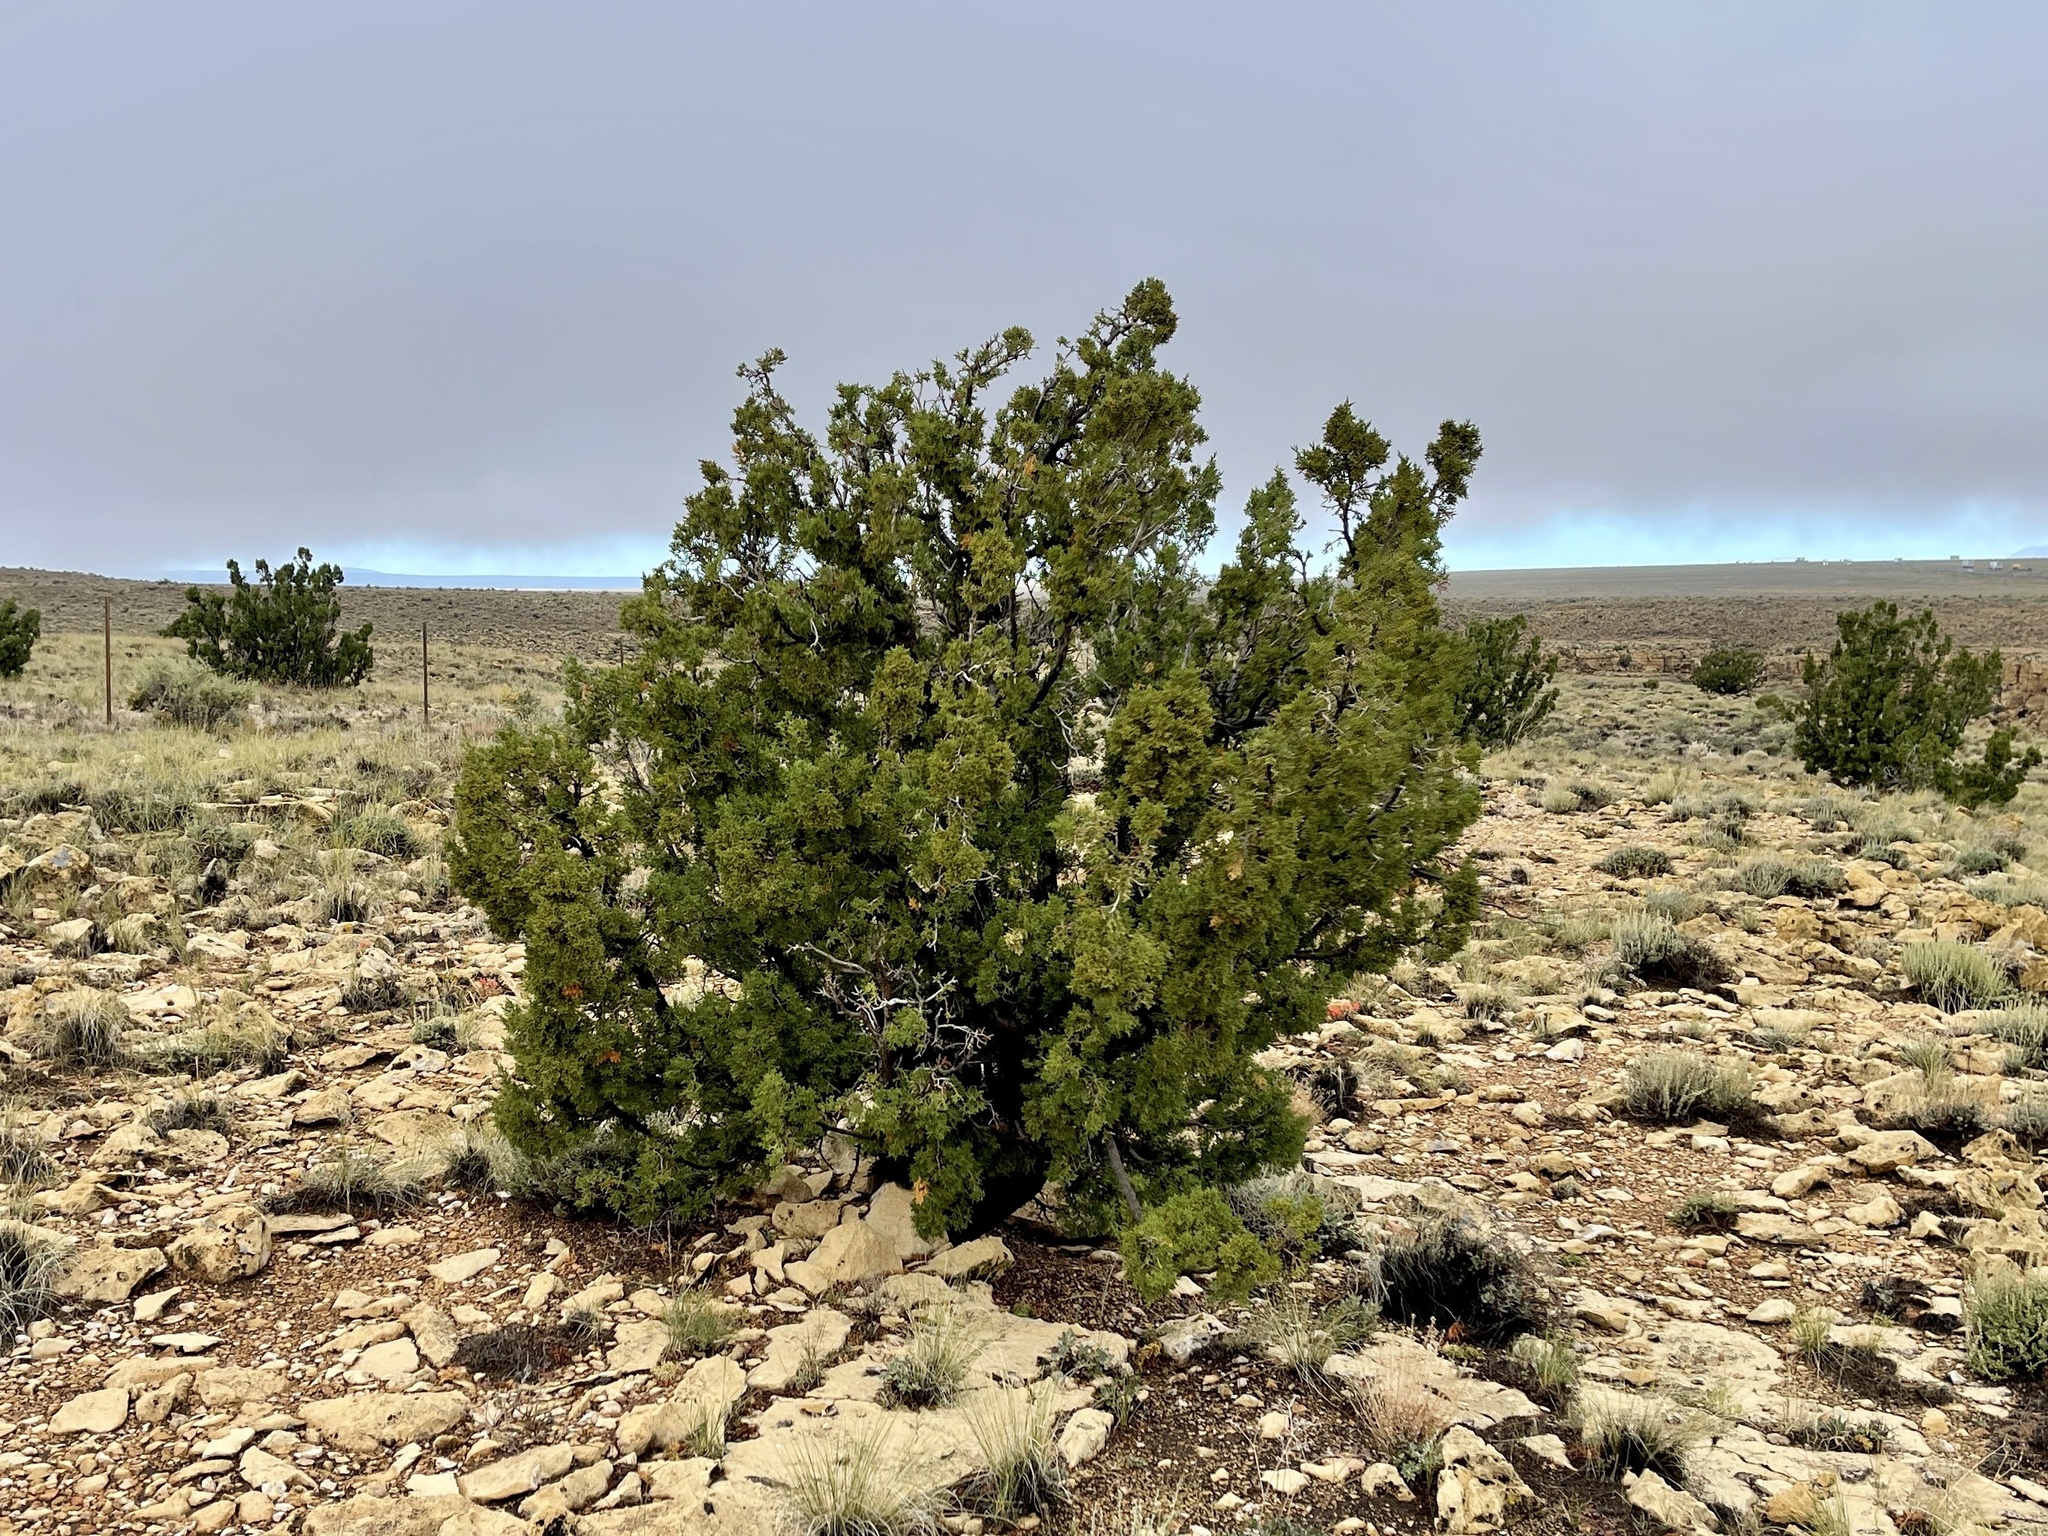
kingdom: Plantae
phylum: Tracheophyta
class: Pinopsida
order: Pinales
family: Cupressaceae
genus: Juniperus
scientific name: Juniperus monosperma
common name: One-seed juniper
